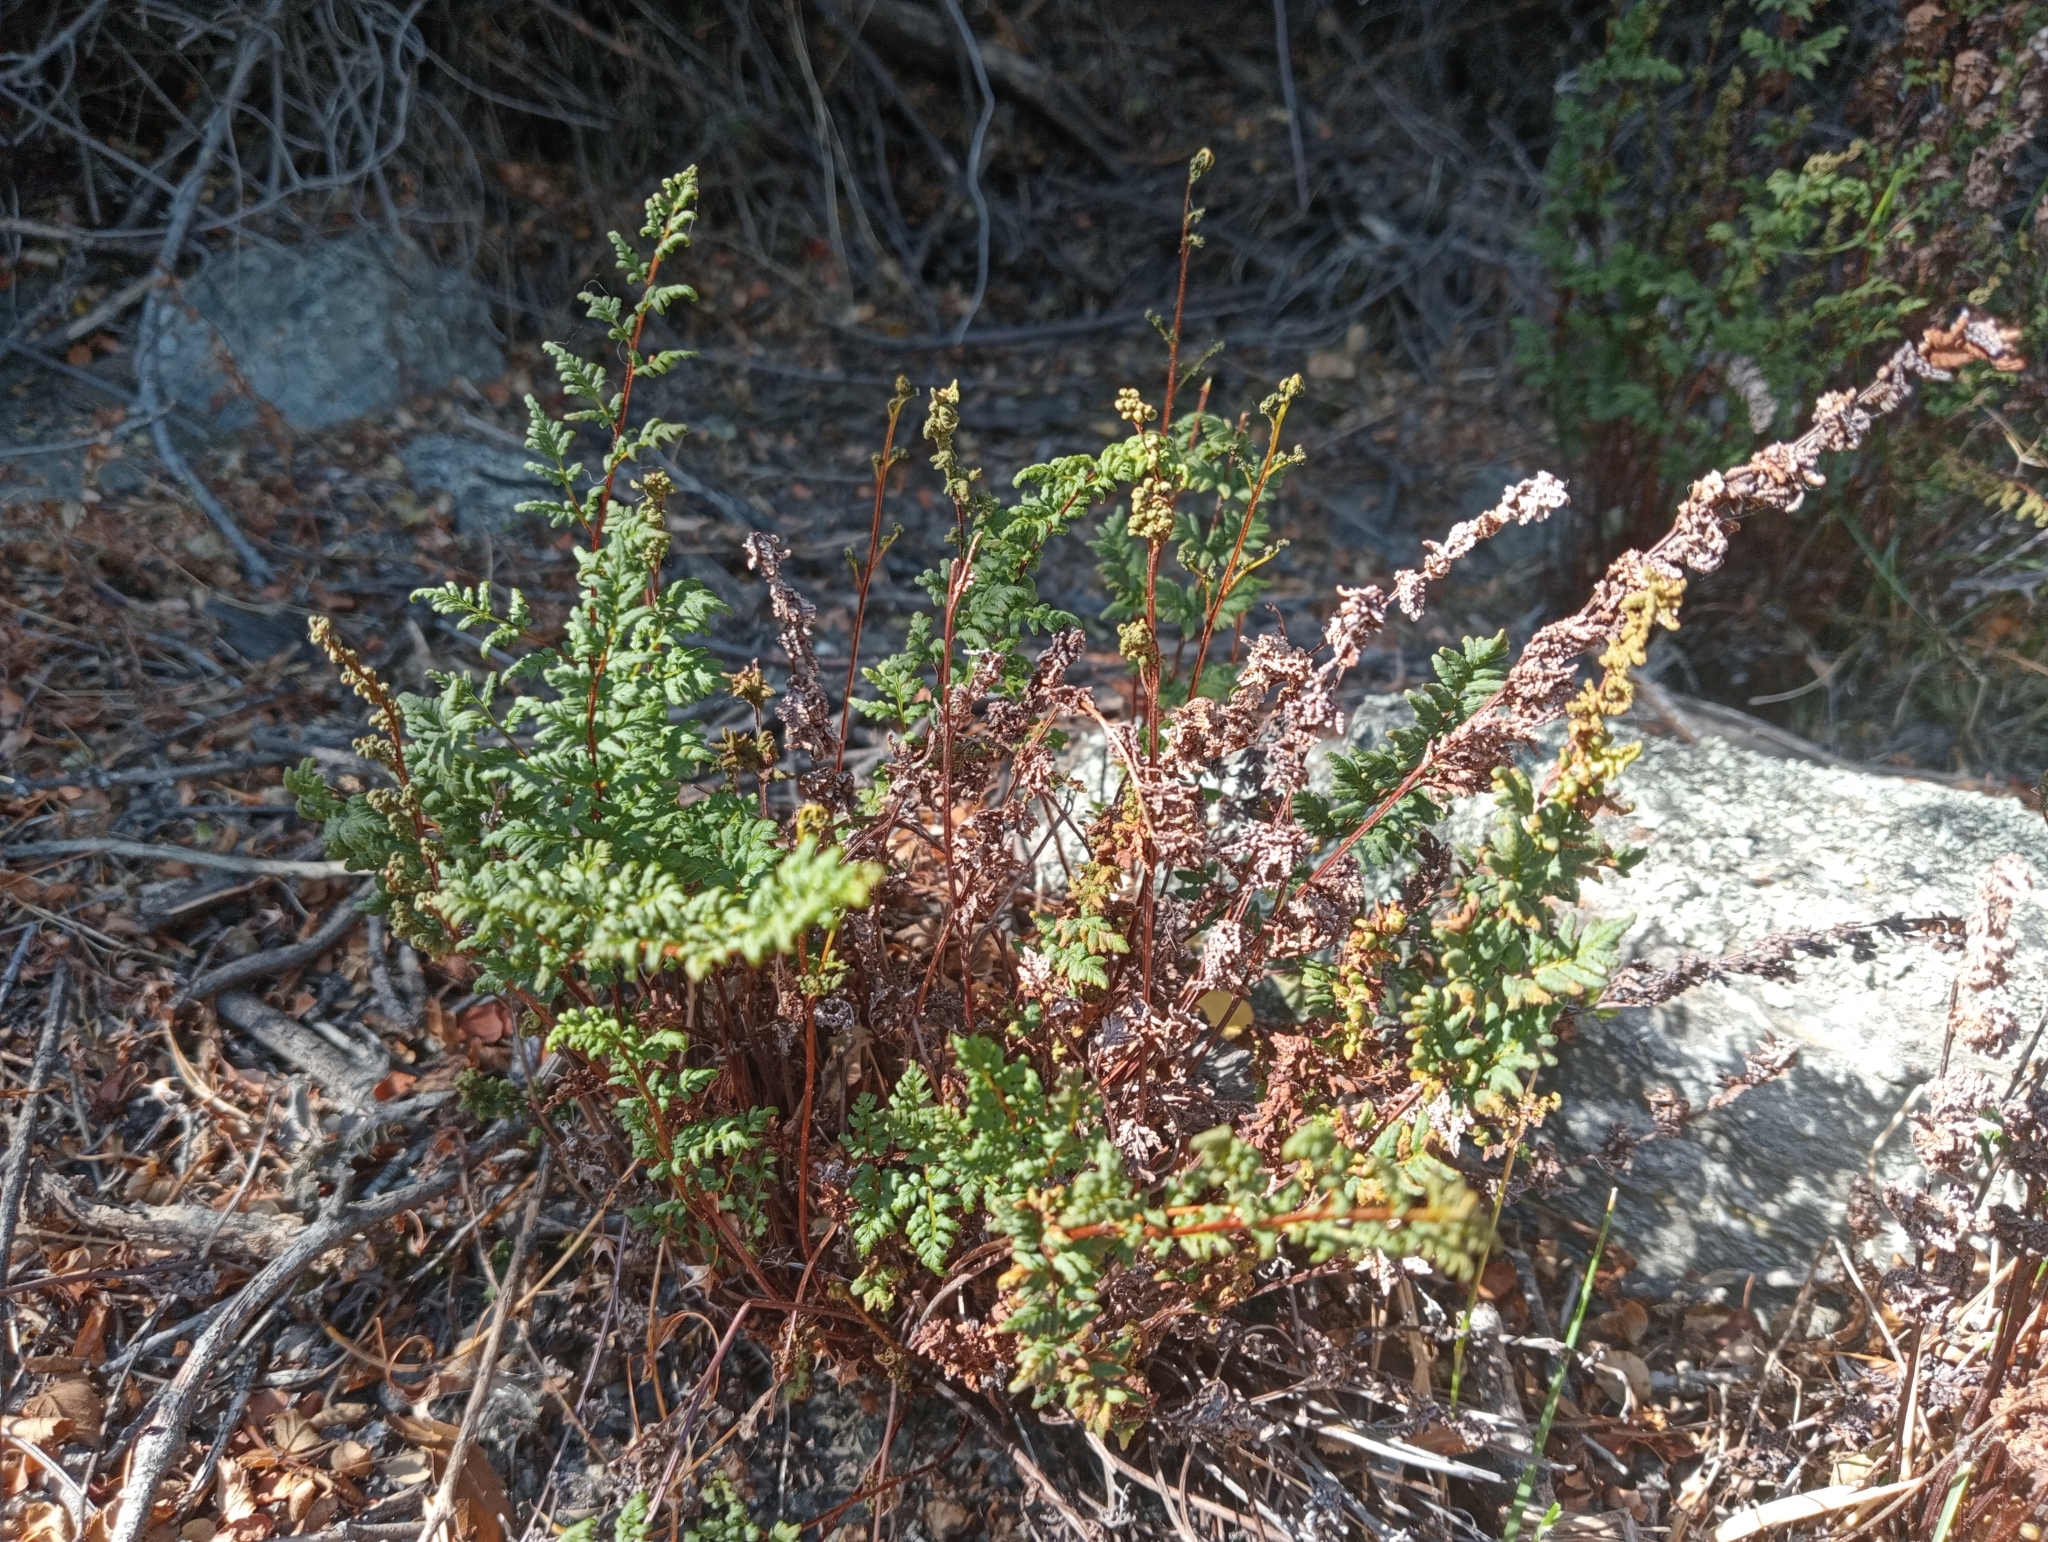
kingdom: Plantae
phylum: Tracheophyta
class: Polypodiopsida
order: Polypodiales
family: Pteridaceae
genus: Cheilanthes
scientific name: Cheilanthes sieberi
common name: Mulga fern
